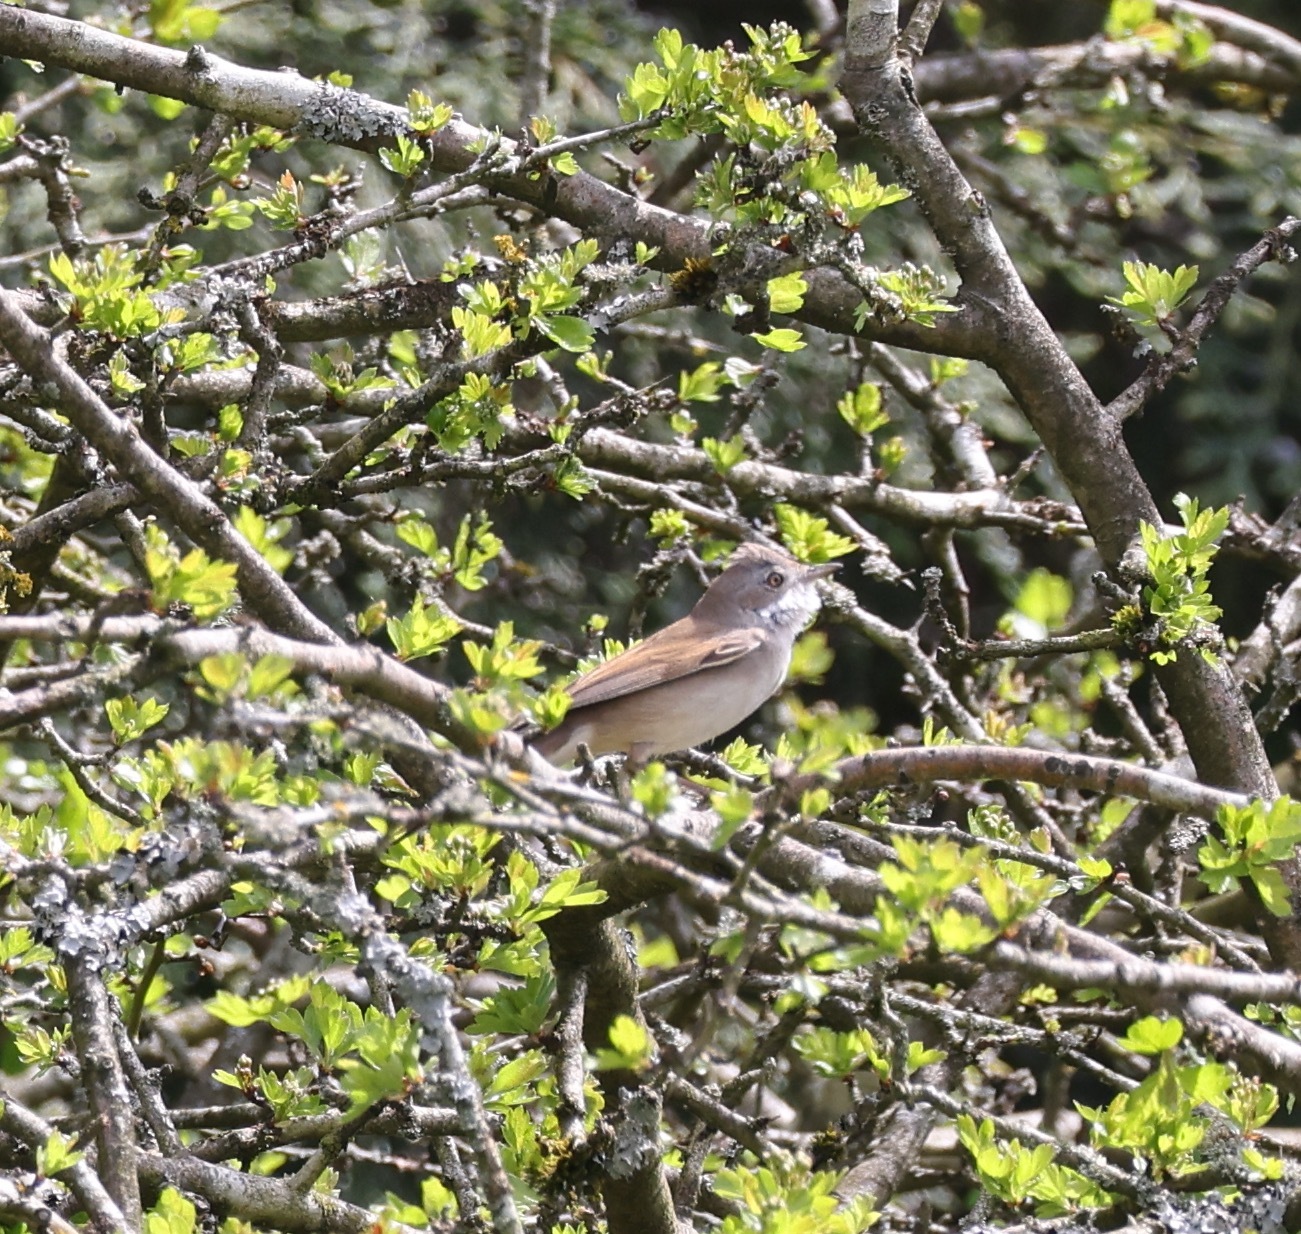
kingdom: Animalia
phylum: Chordata
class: Aves
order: Passeriformes
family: Sylviidae
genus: Sylvia
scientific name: Sylvia communis
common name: Common whitethroat
